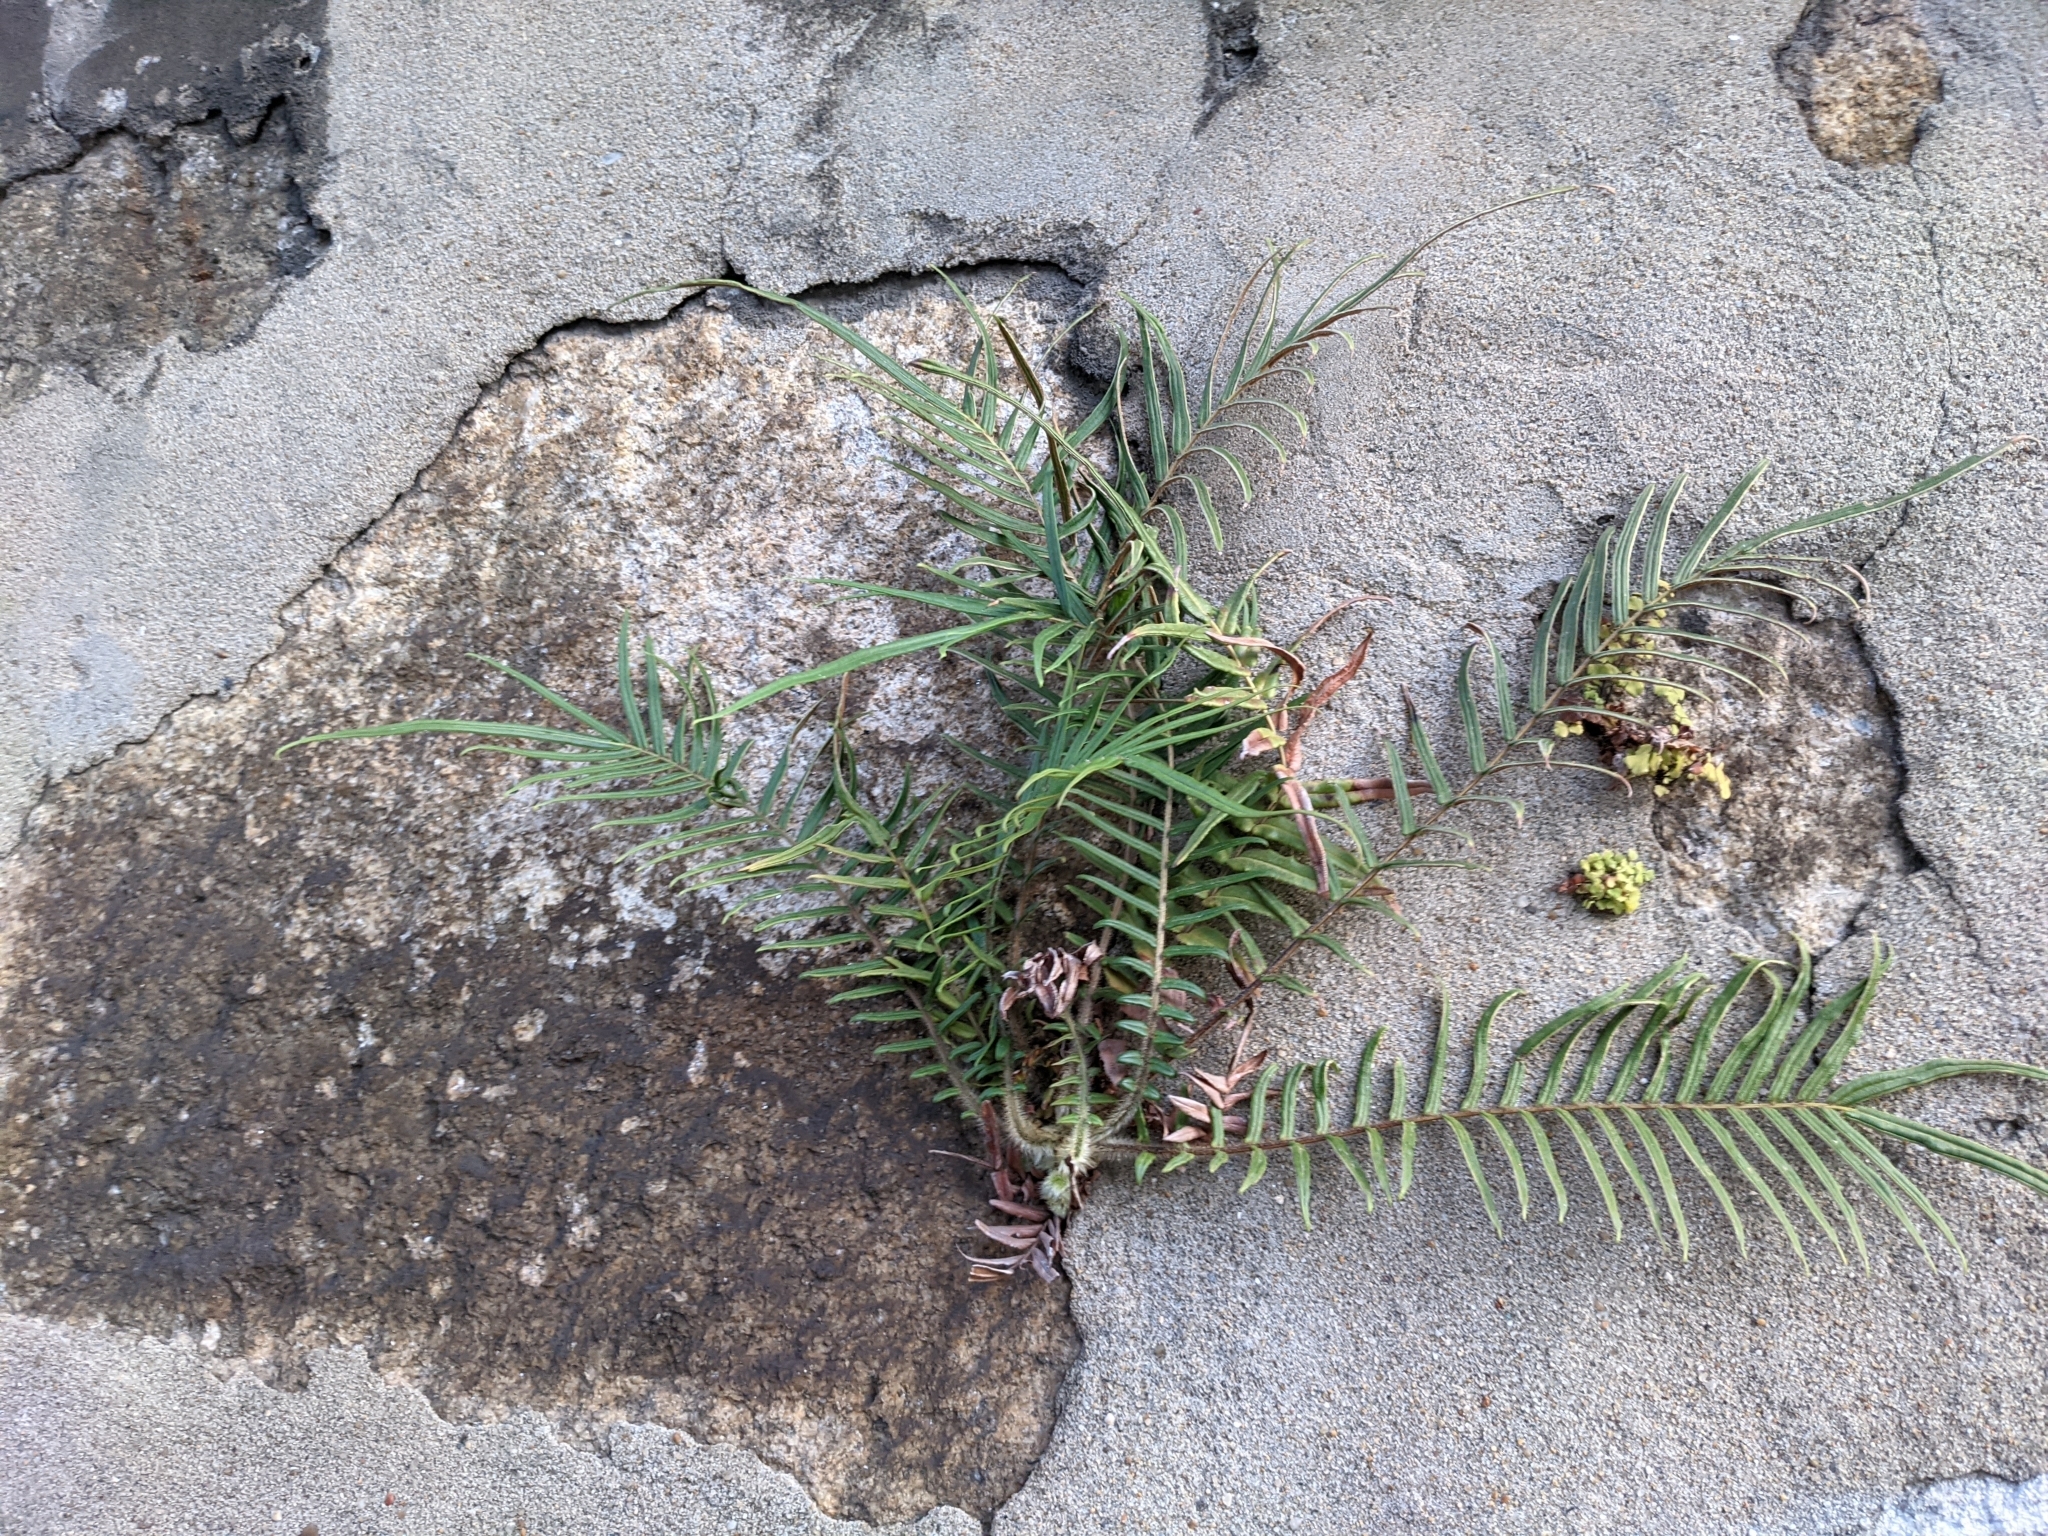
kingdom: Plantae
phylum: Tracheophyta
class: Polypodiopsida
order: Polypodiales
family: Pteridaceae
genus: Pteris
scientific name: Pteris vittata
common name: Ladder brake
